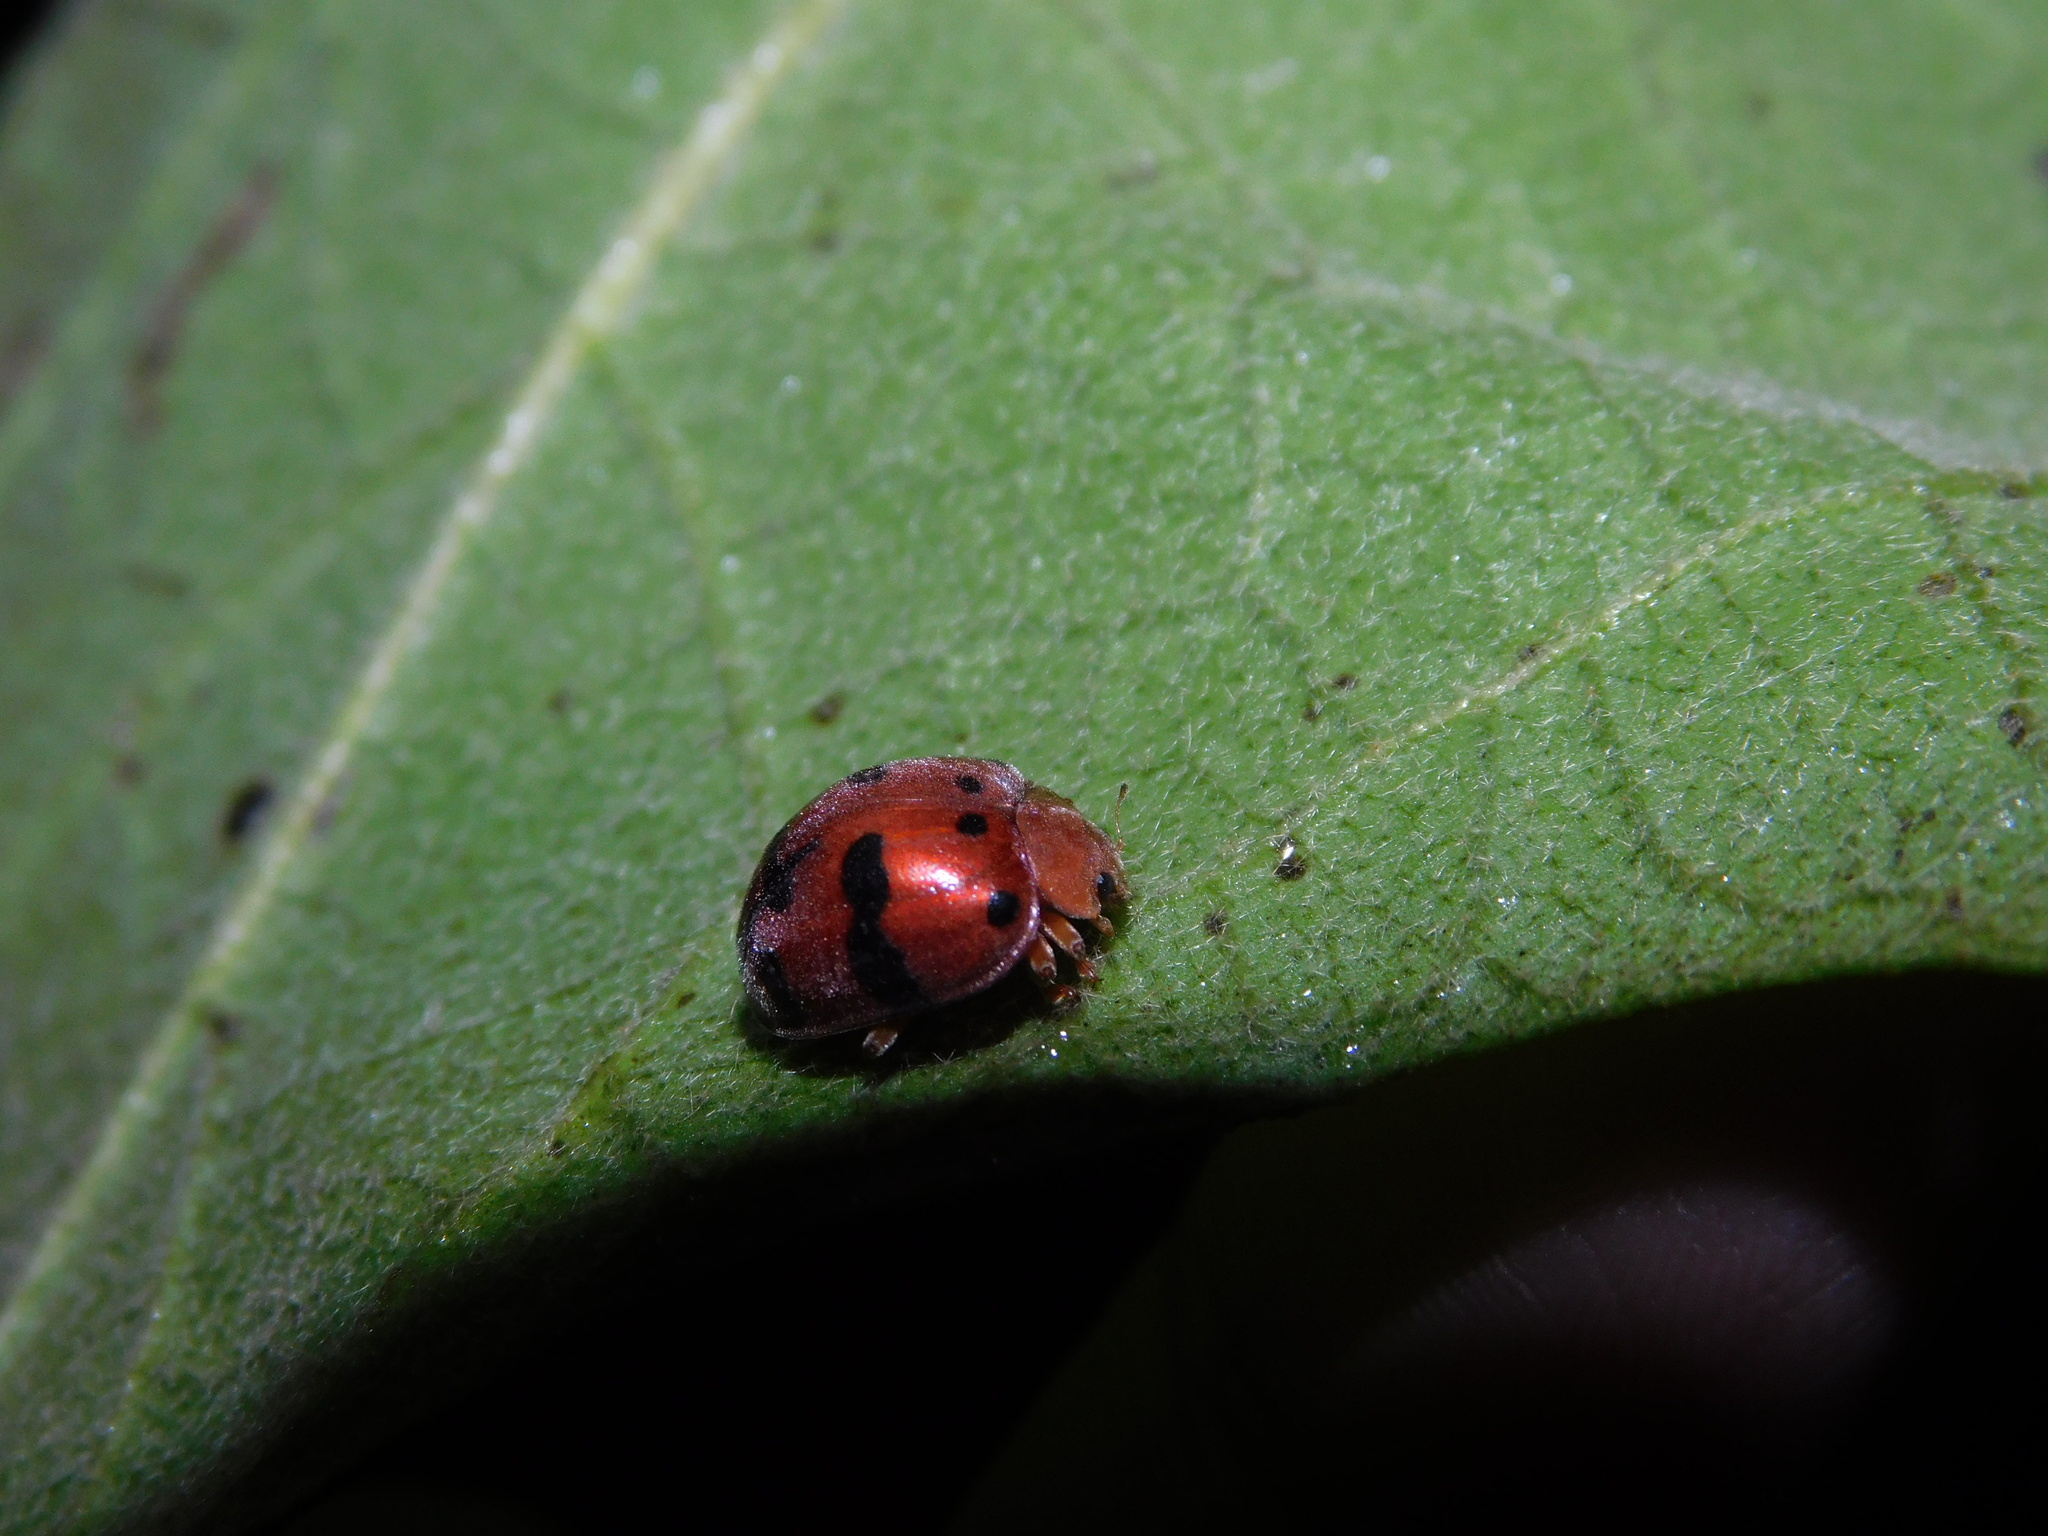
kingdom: Animalia
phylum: Arthropoda
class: Insecta
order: Coleoptera
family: Coccinellidae
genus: Henosepilachna
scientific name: Henosepilachna enneasticta
